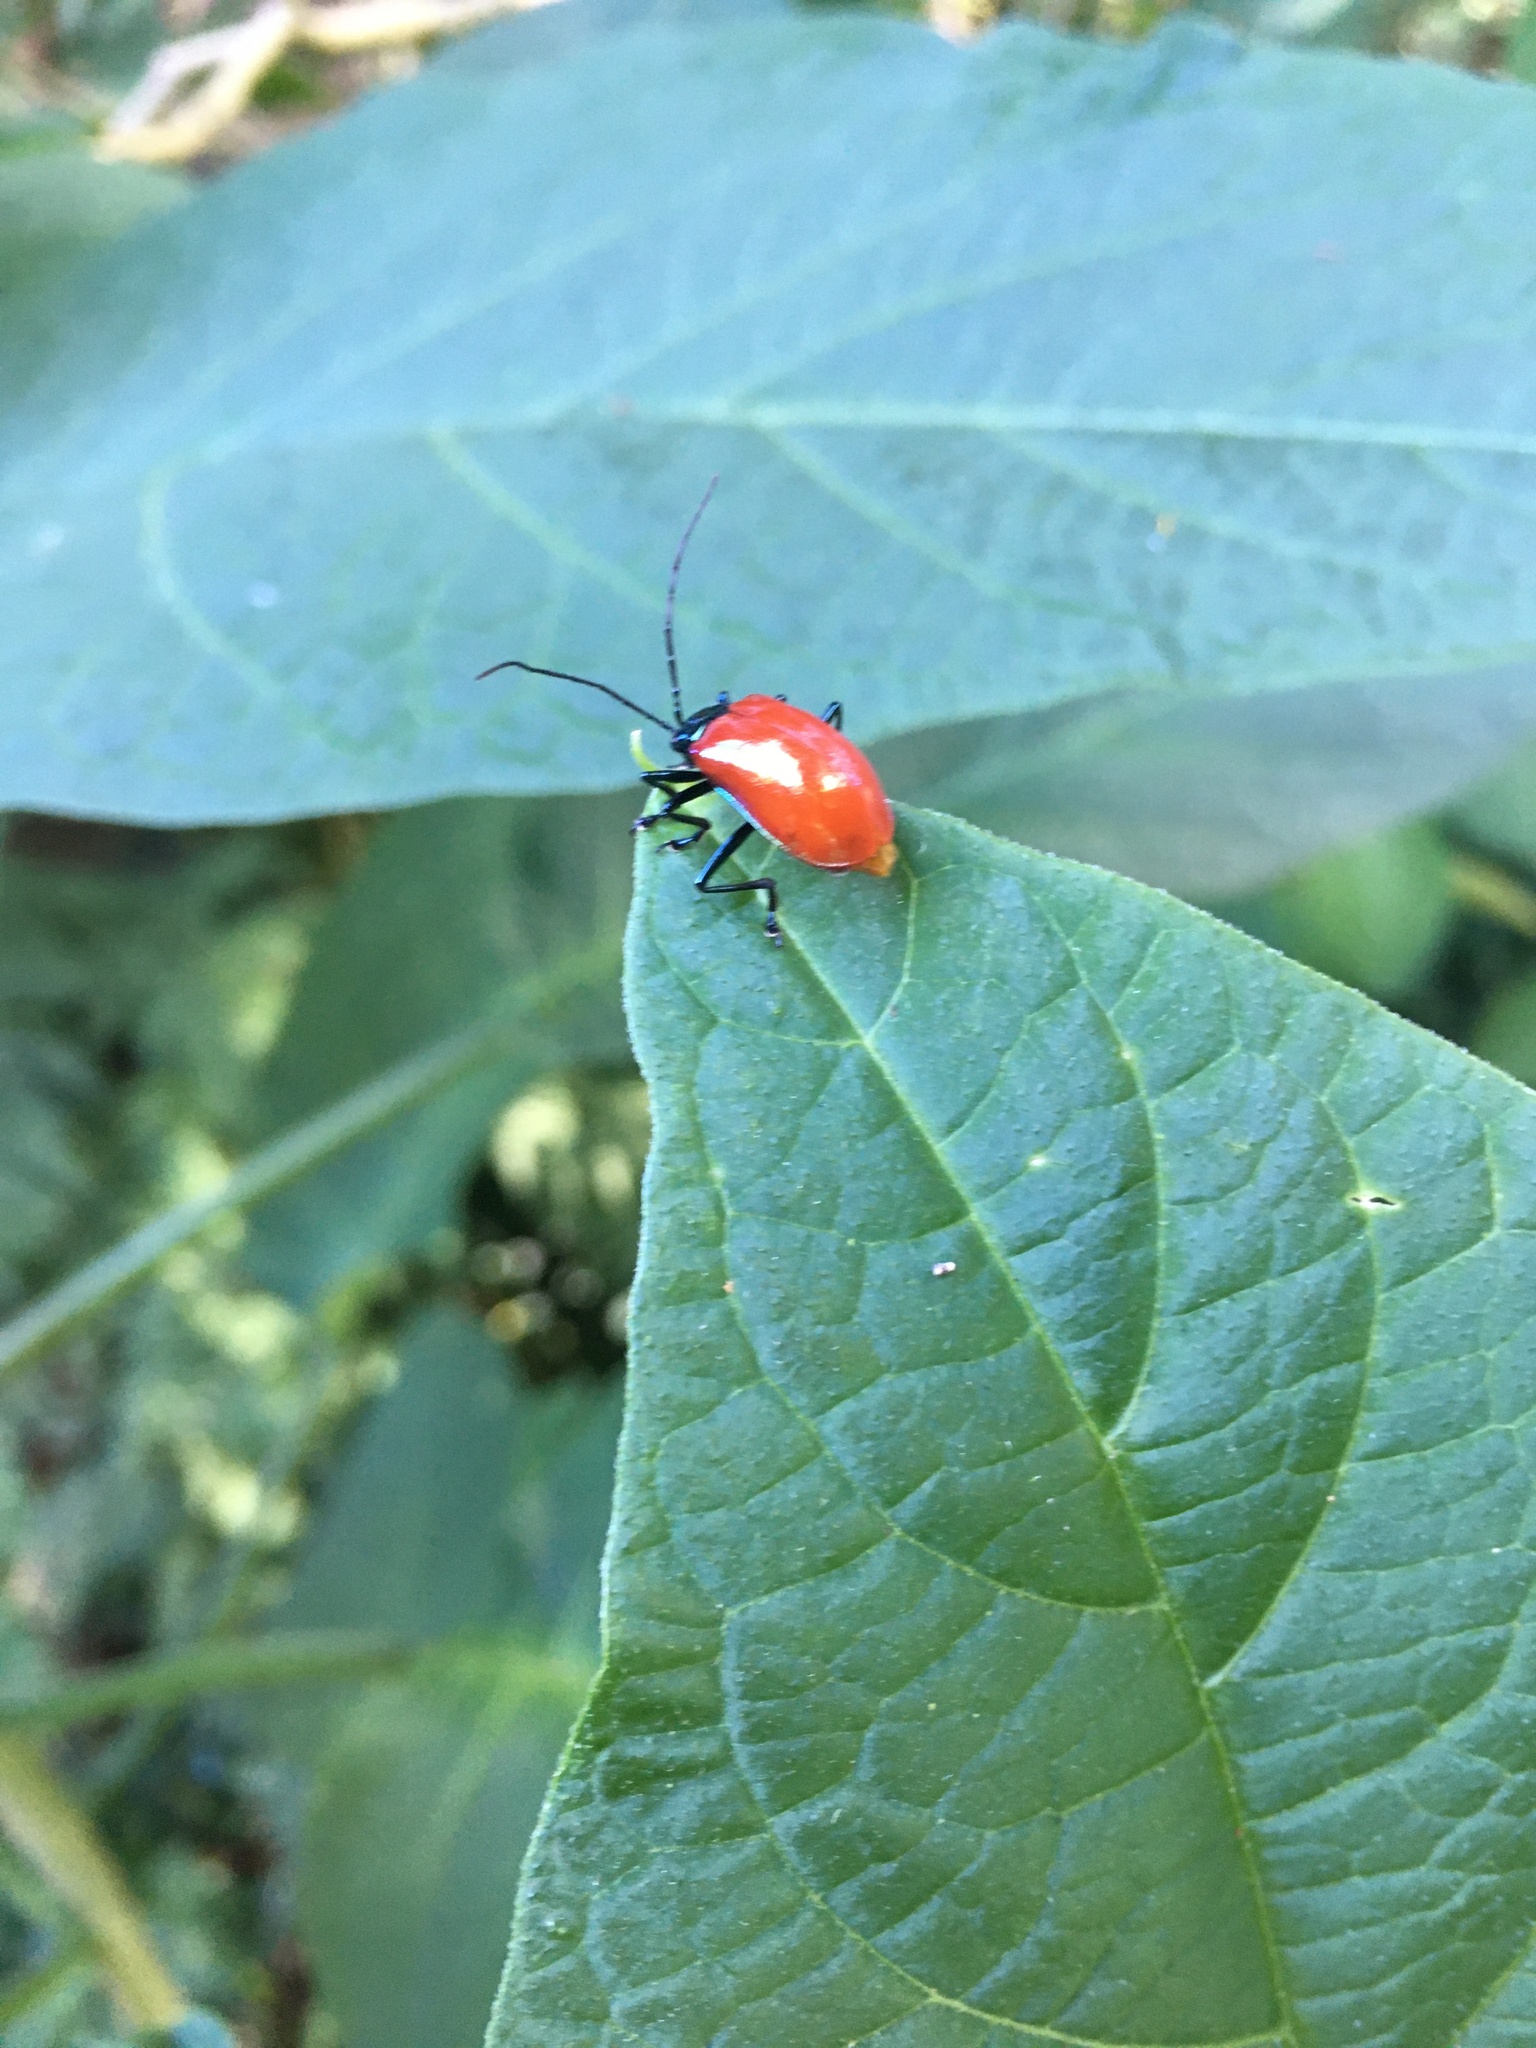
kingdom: Animalia
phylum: Arthropoda
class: Insecta
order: Coleoptera
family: Chrysomelidae
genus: Meristoides
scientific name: Meristoides grandipennis
